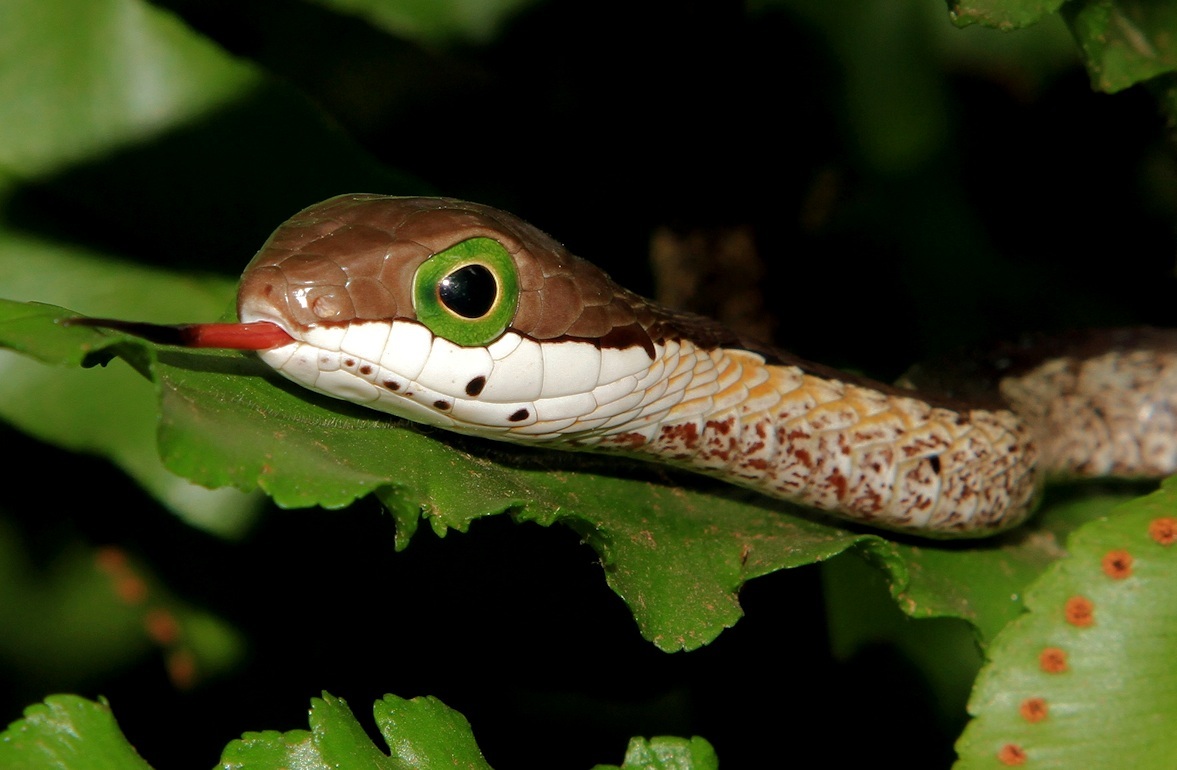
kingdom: Animalia
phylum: Chordata
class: Squamata
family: Colubridae
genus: Dispholidus
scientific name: Dispholidus typus
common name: Boomslang
